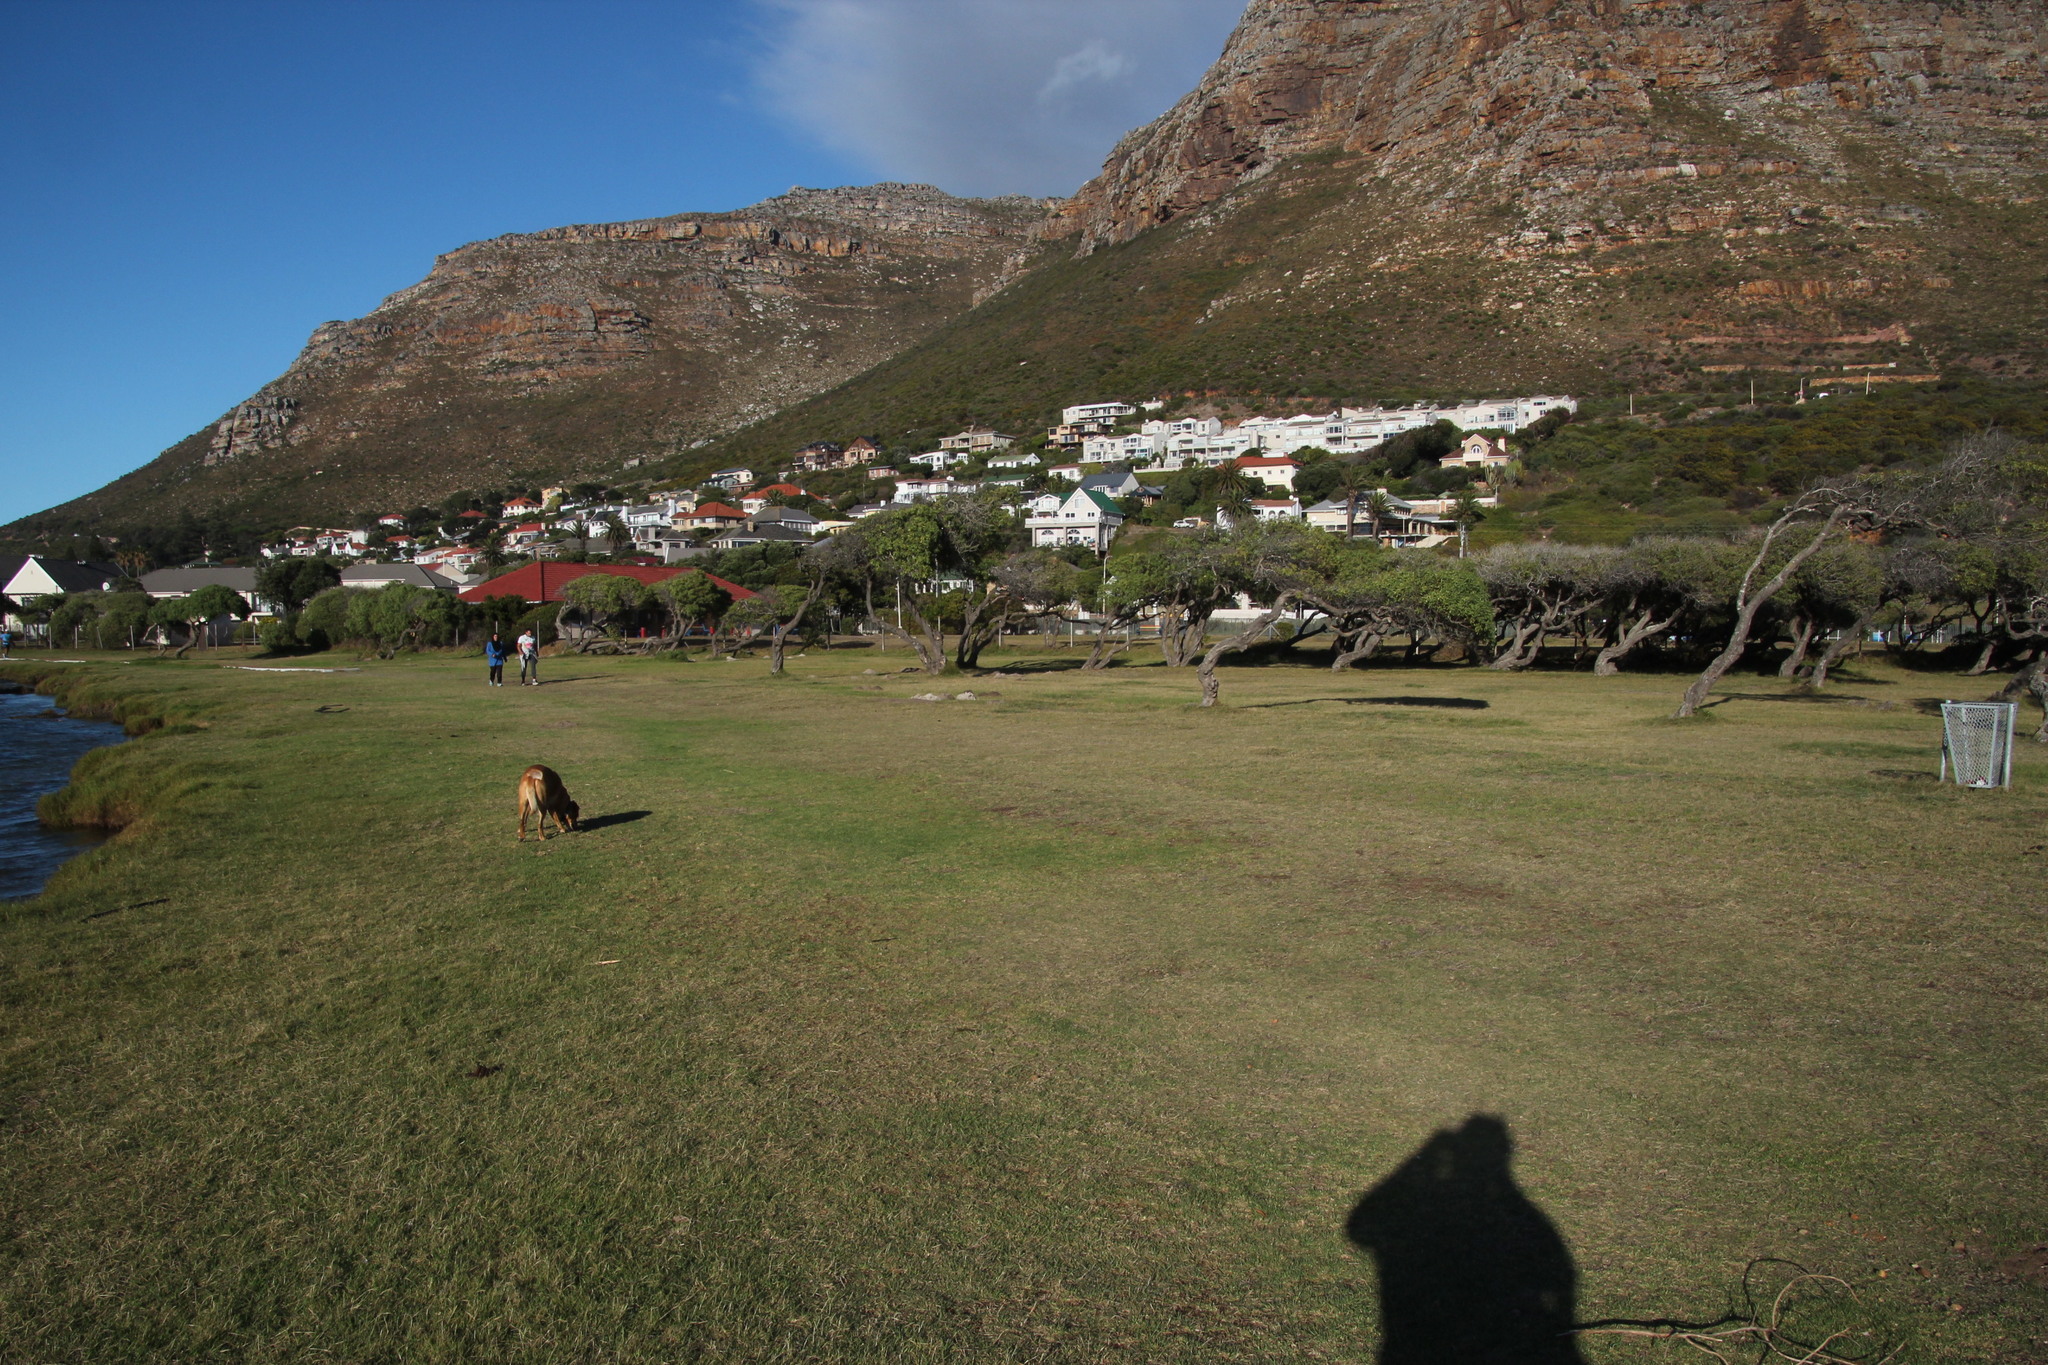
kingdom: Plantae
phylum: Tracheophyta
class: Liliopsida
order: Poales
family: Poaceae
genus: Cynodon
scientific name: Cynodon dactylon
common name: Bermuda grass
